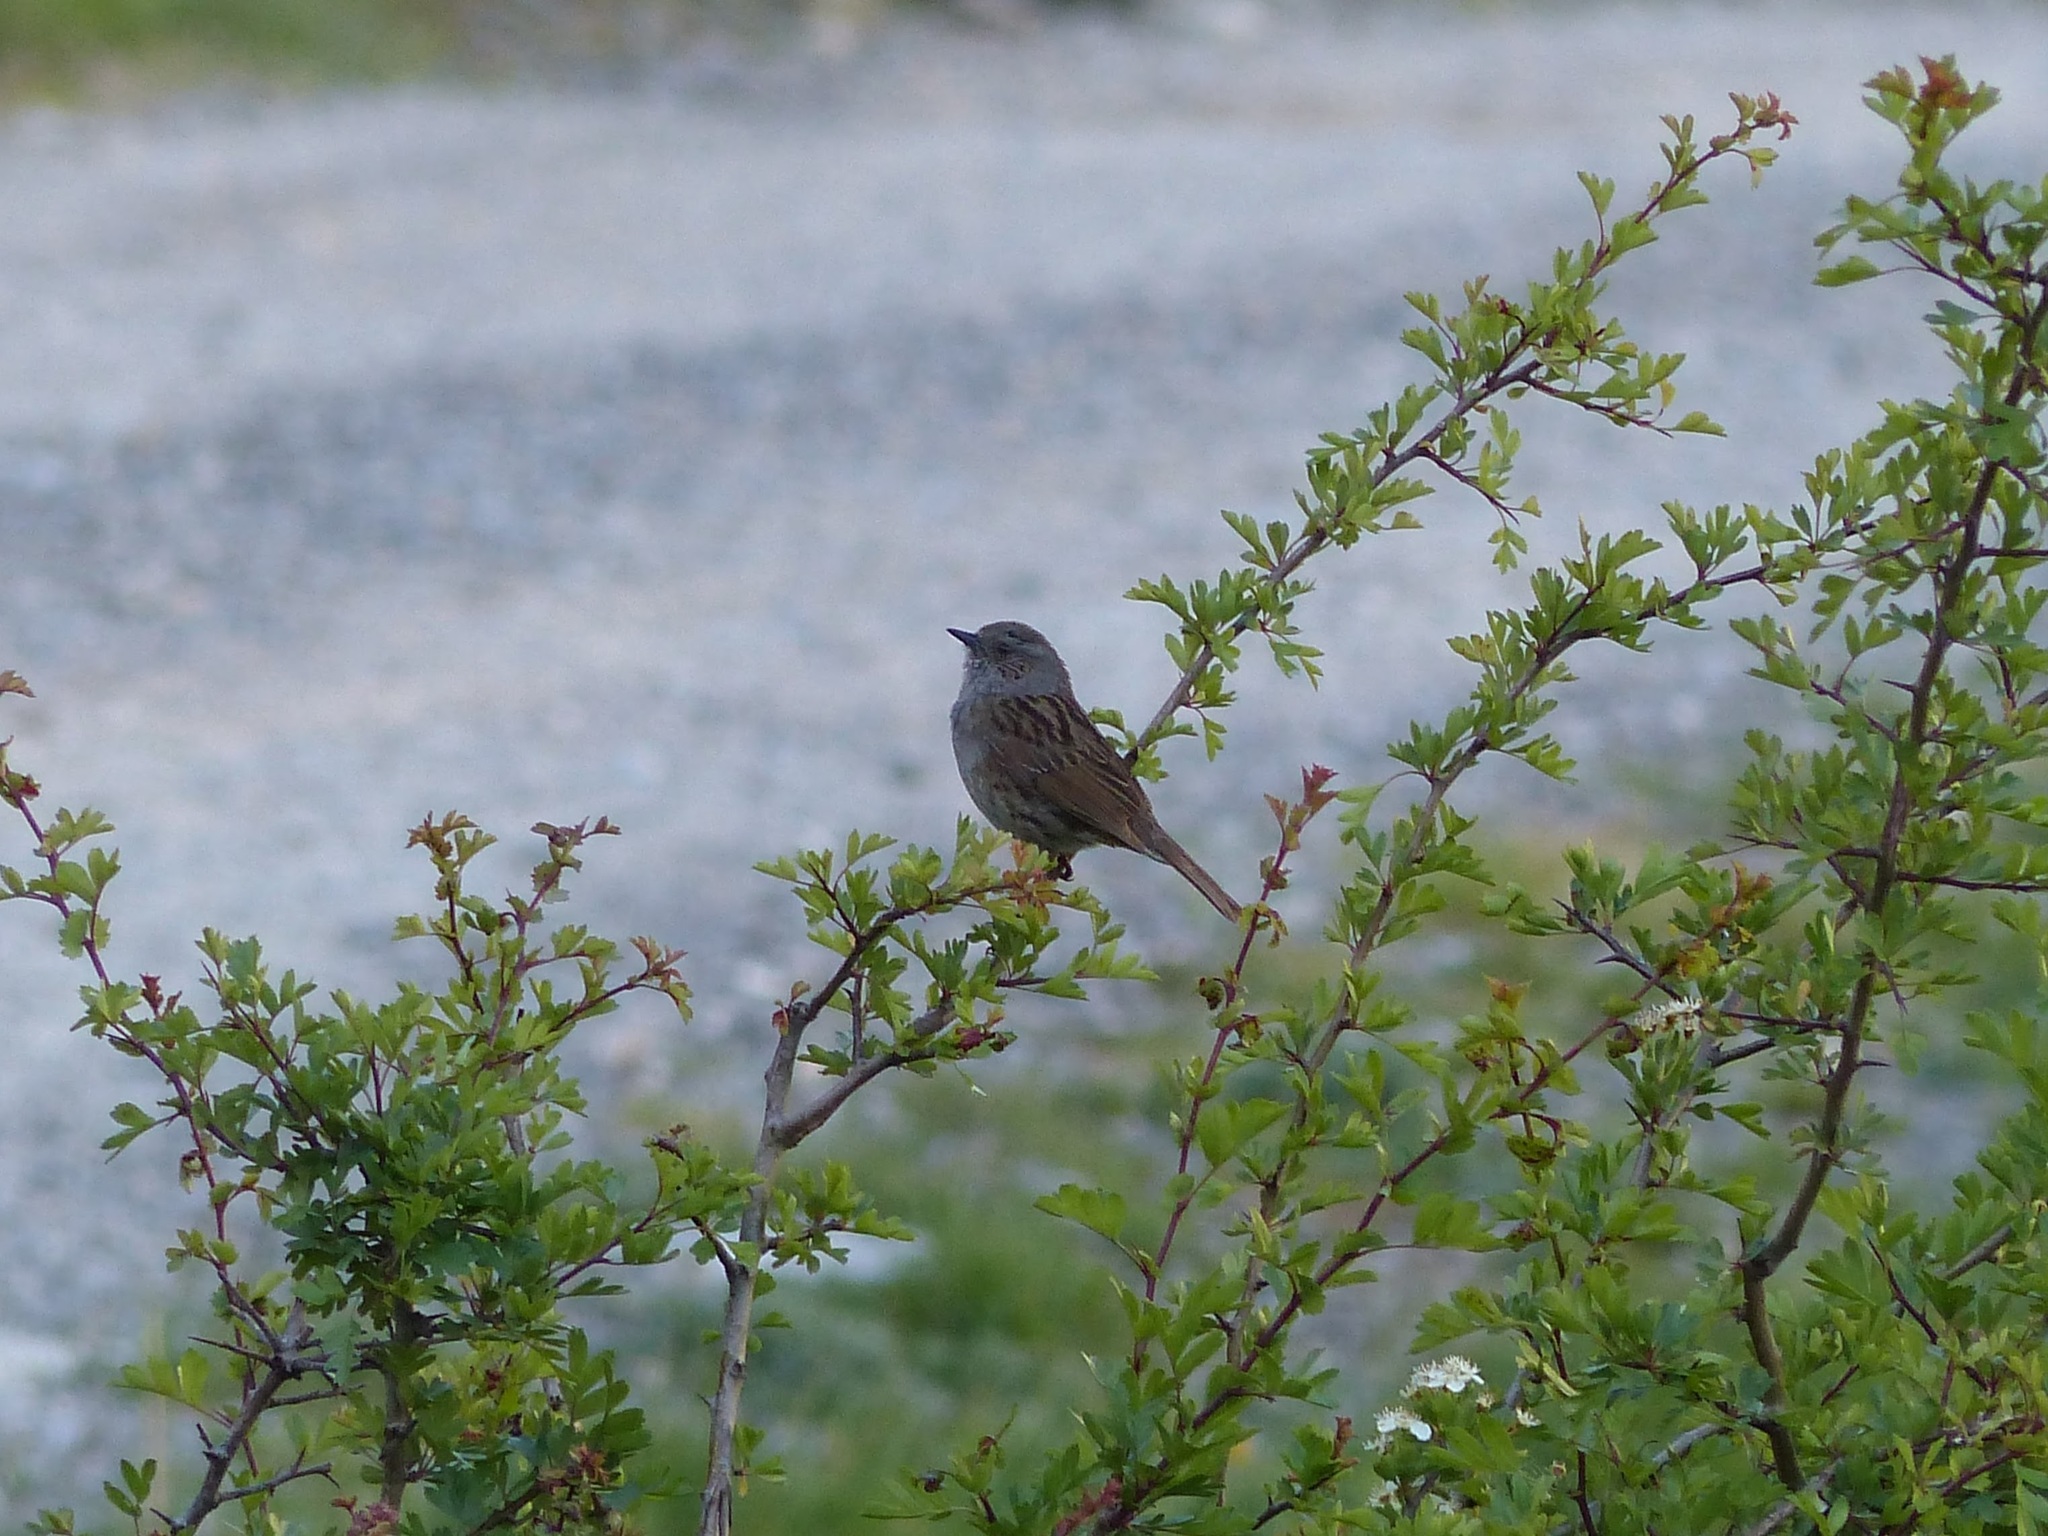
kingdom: Animalia
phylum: Chordata
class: Aves
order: Passeriformes
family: Prunellidae
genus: Prunella
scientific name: Prunella modularis
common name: Dunnock
